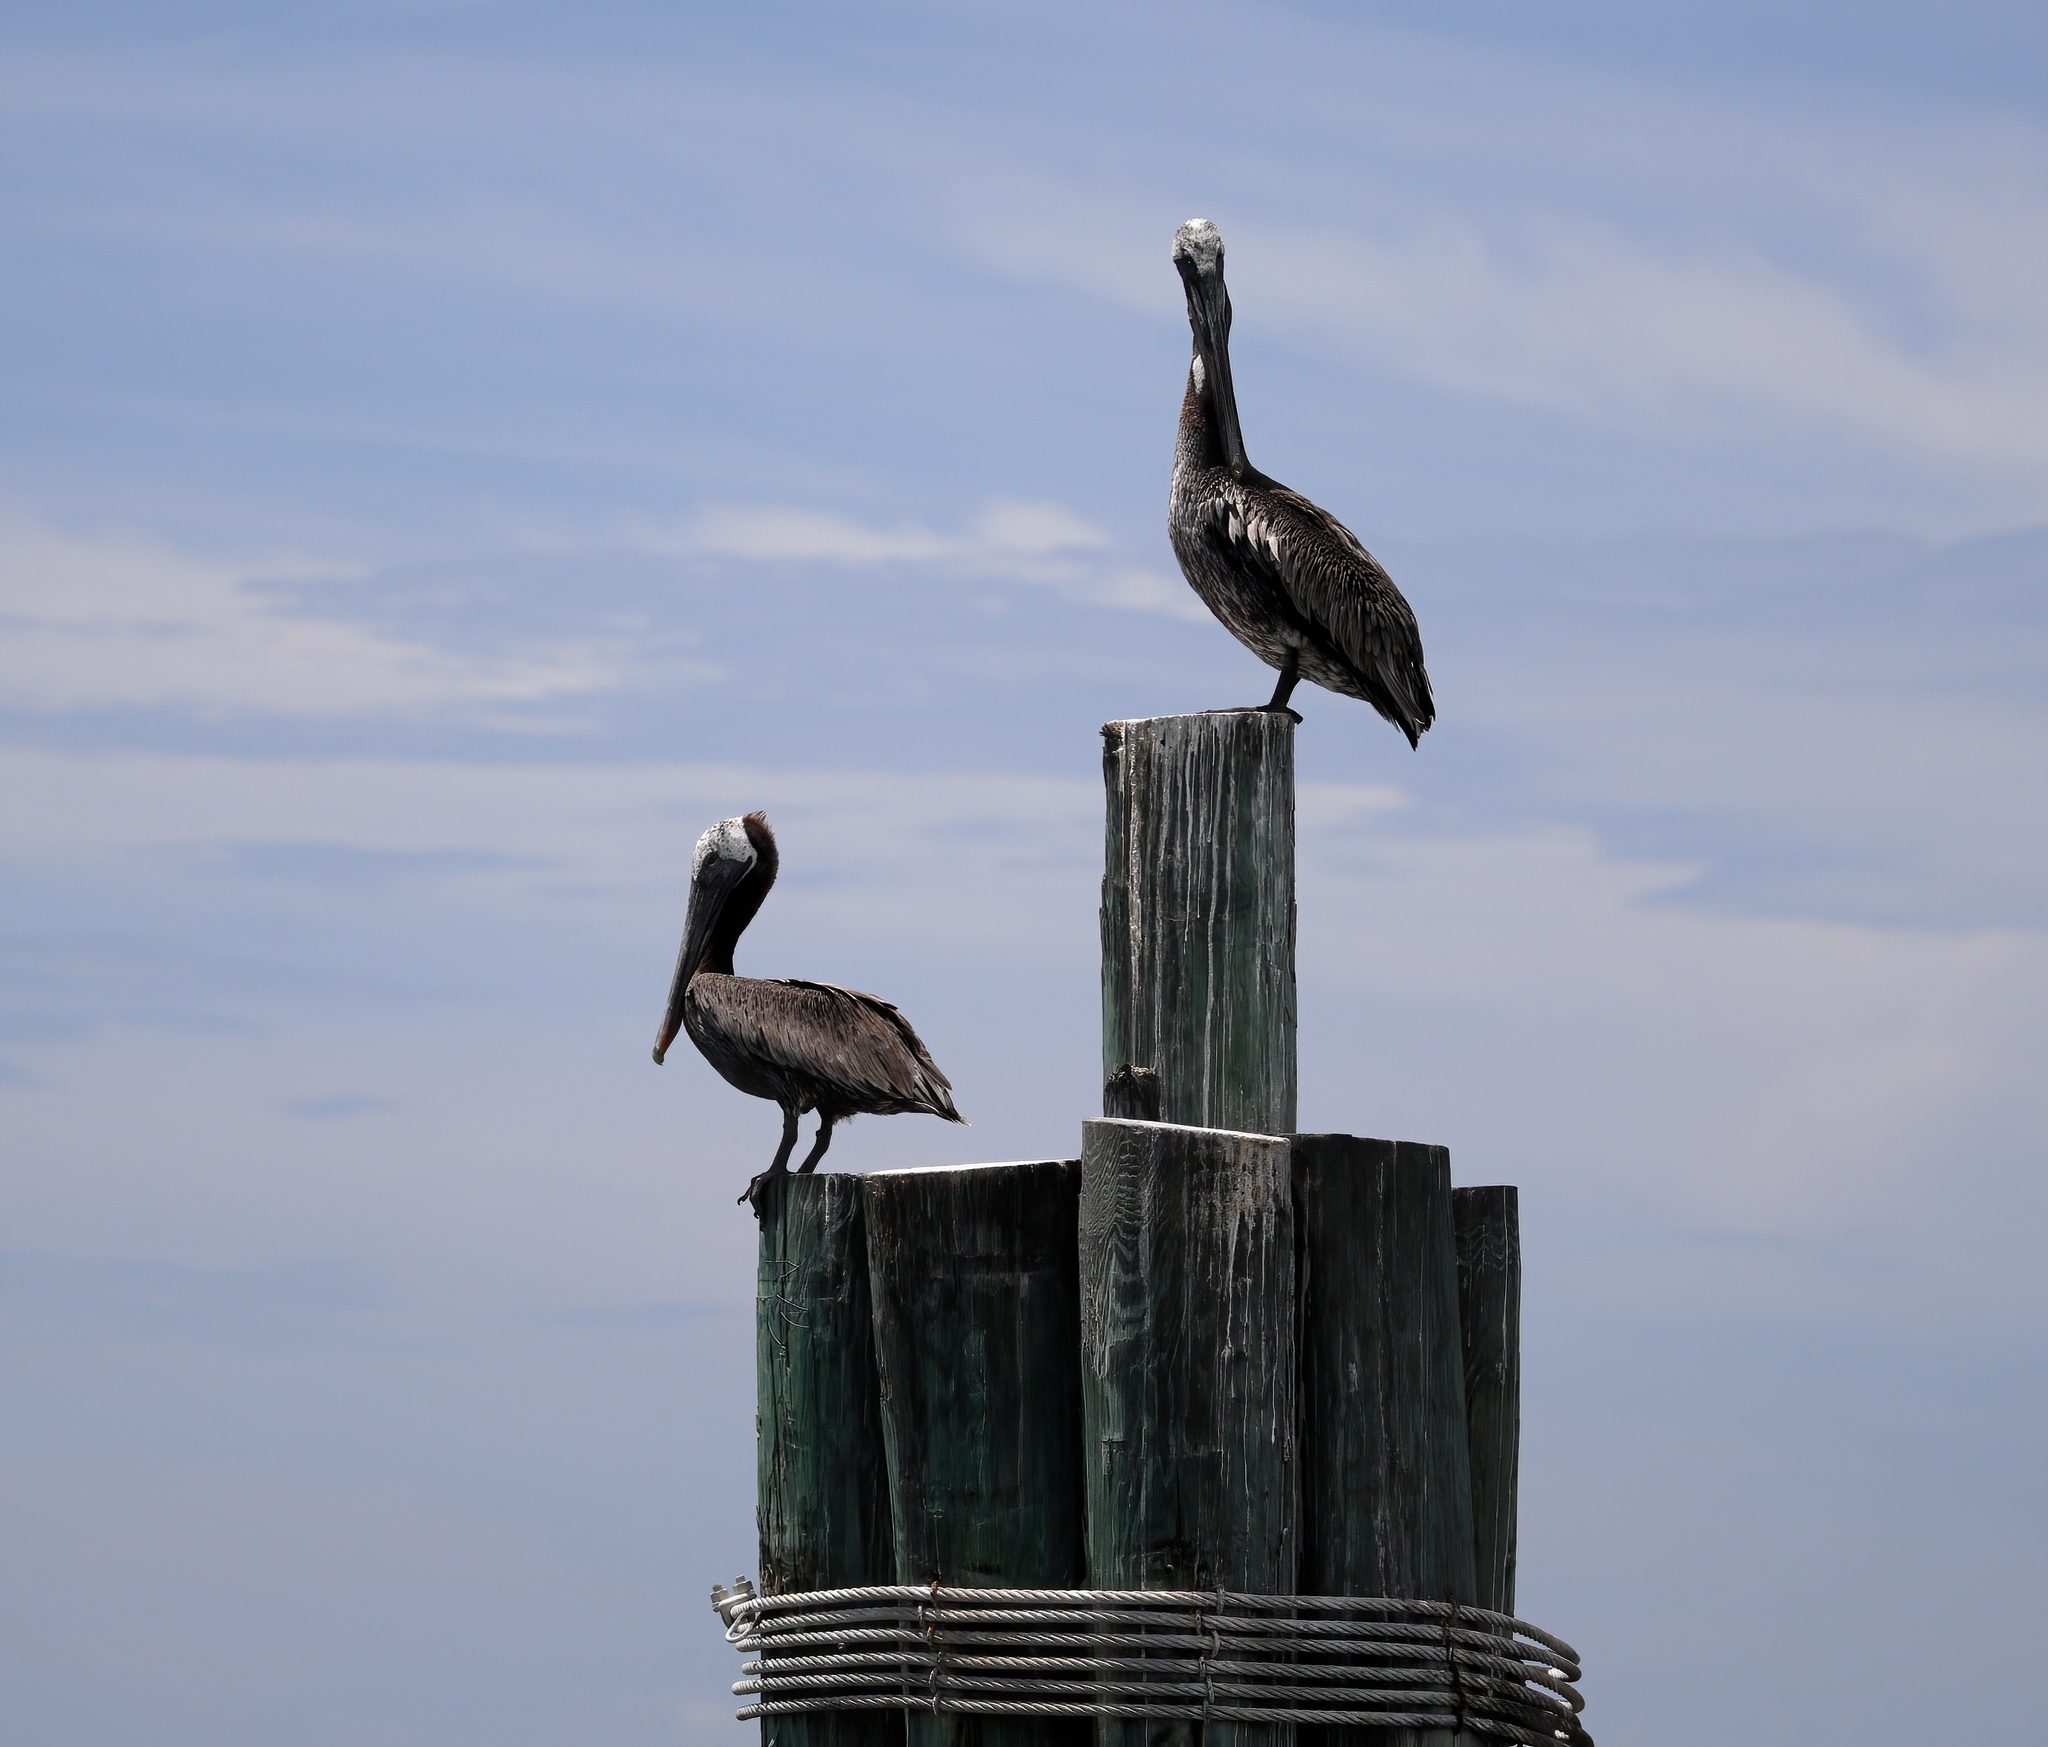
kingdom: Animalia
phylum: Chordata
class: Aves
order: Pelecaniformes
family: Pelecanidae
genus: Pelecanus
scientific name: Pelecanus occidentalis
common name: Brown pelican
